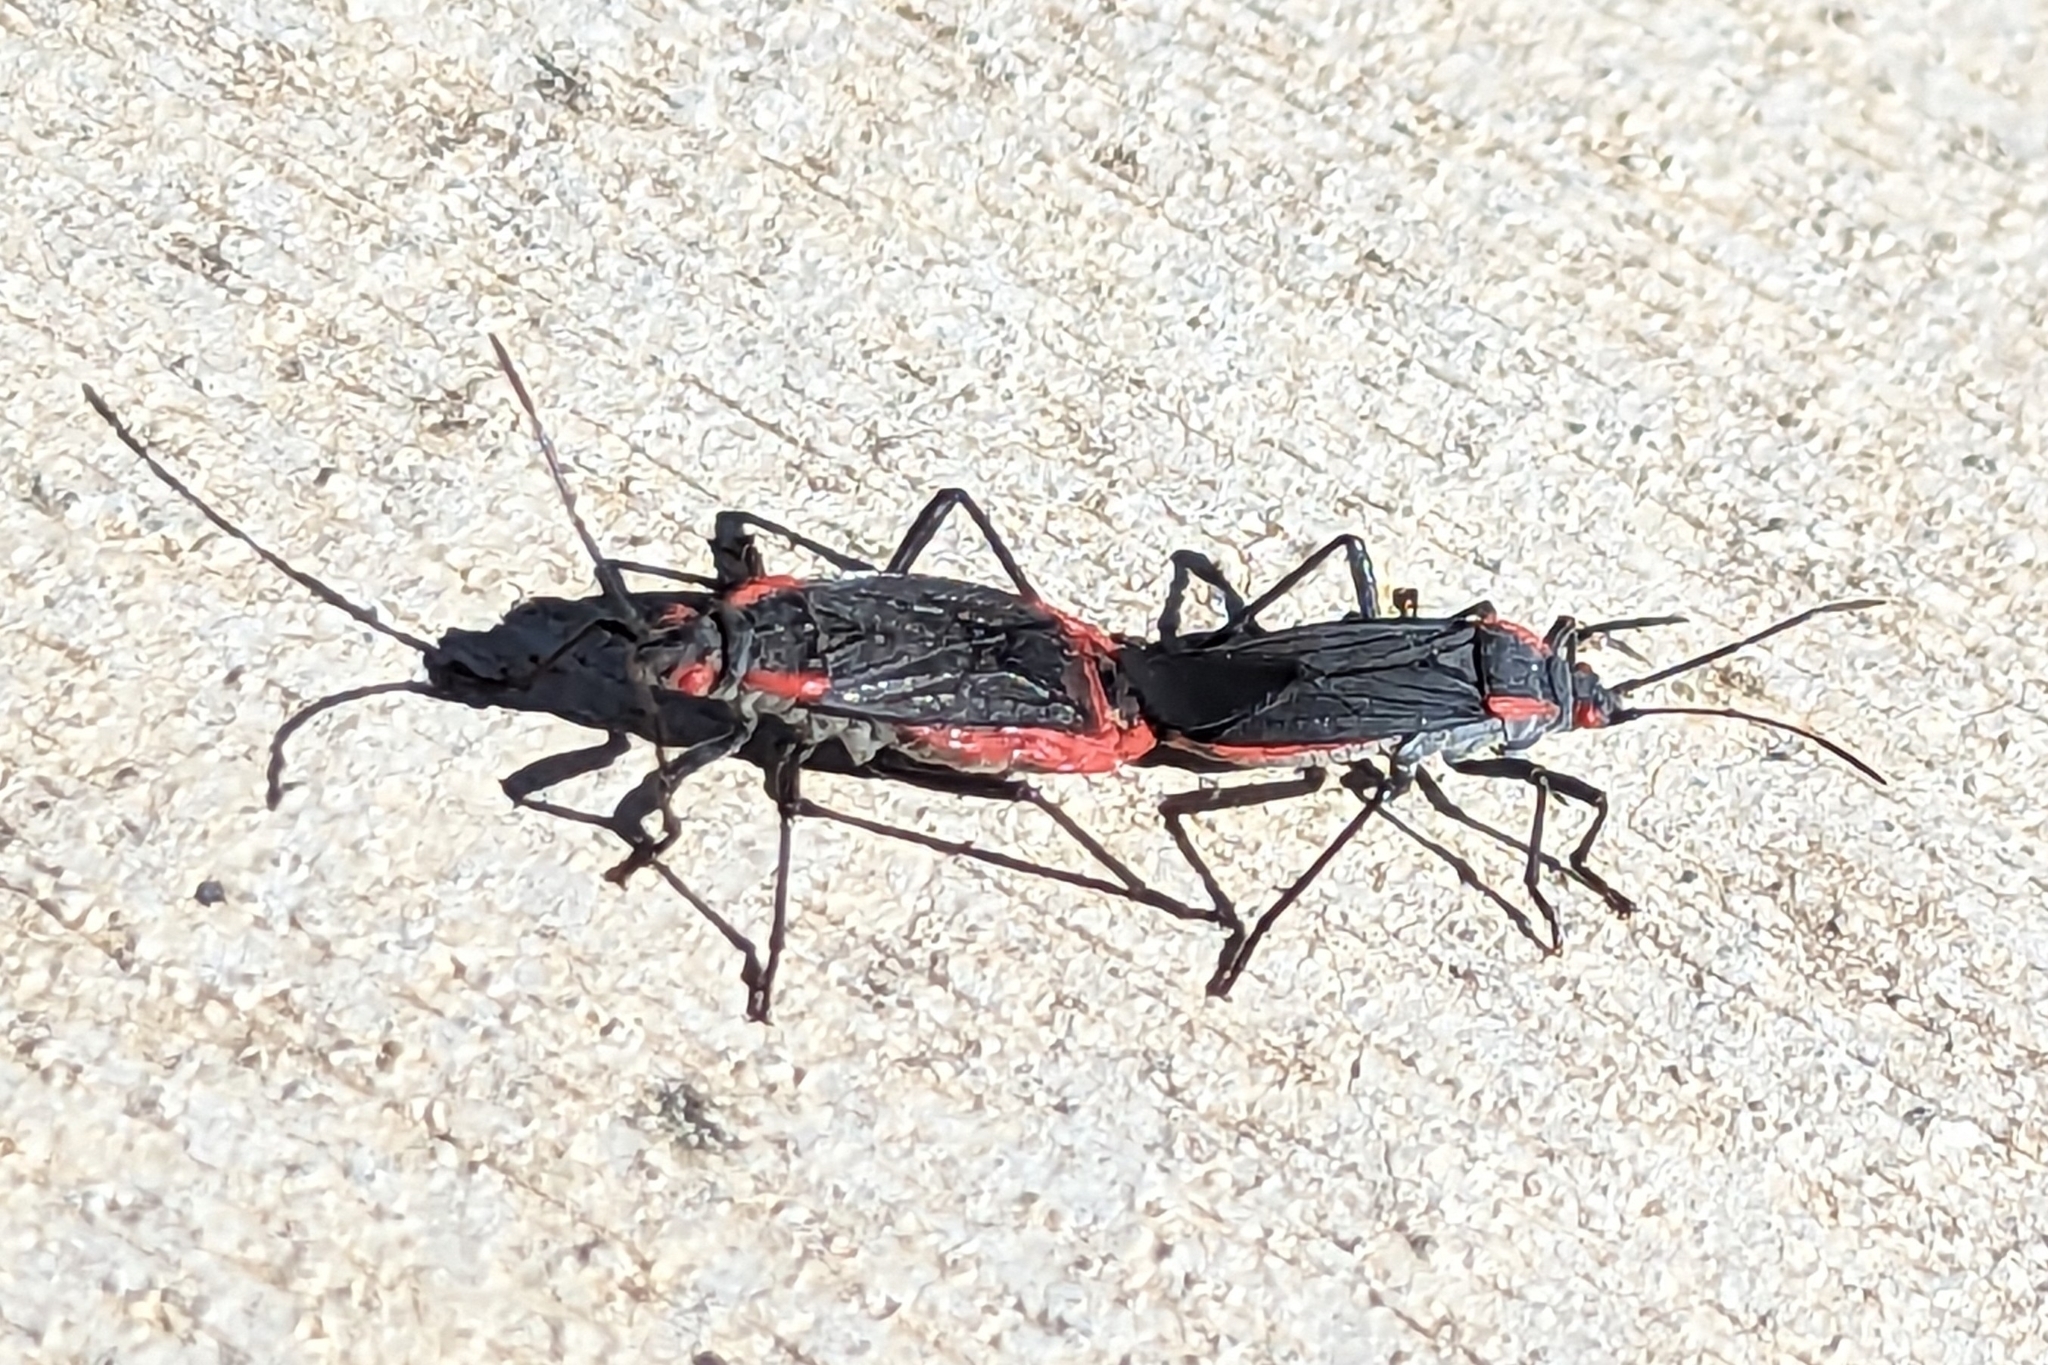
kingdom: Animalia
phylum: Arthropoda
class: Insecta
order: Hemiptera
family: Rhopalidae
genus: Jadera
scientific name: Jadera haematoloma
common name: Red-shouldered bug
